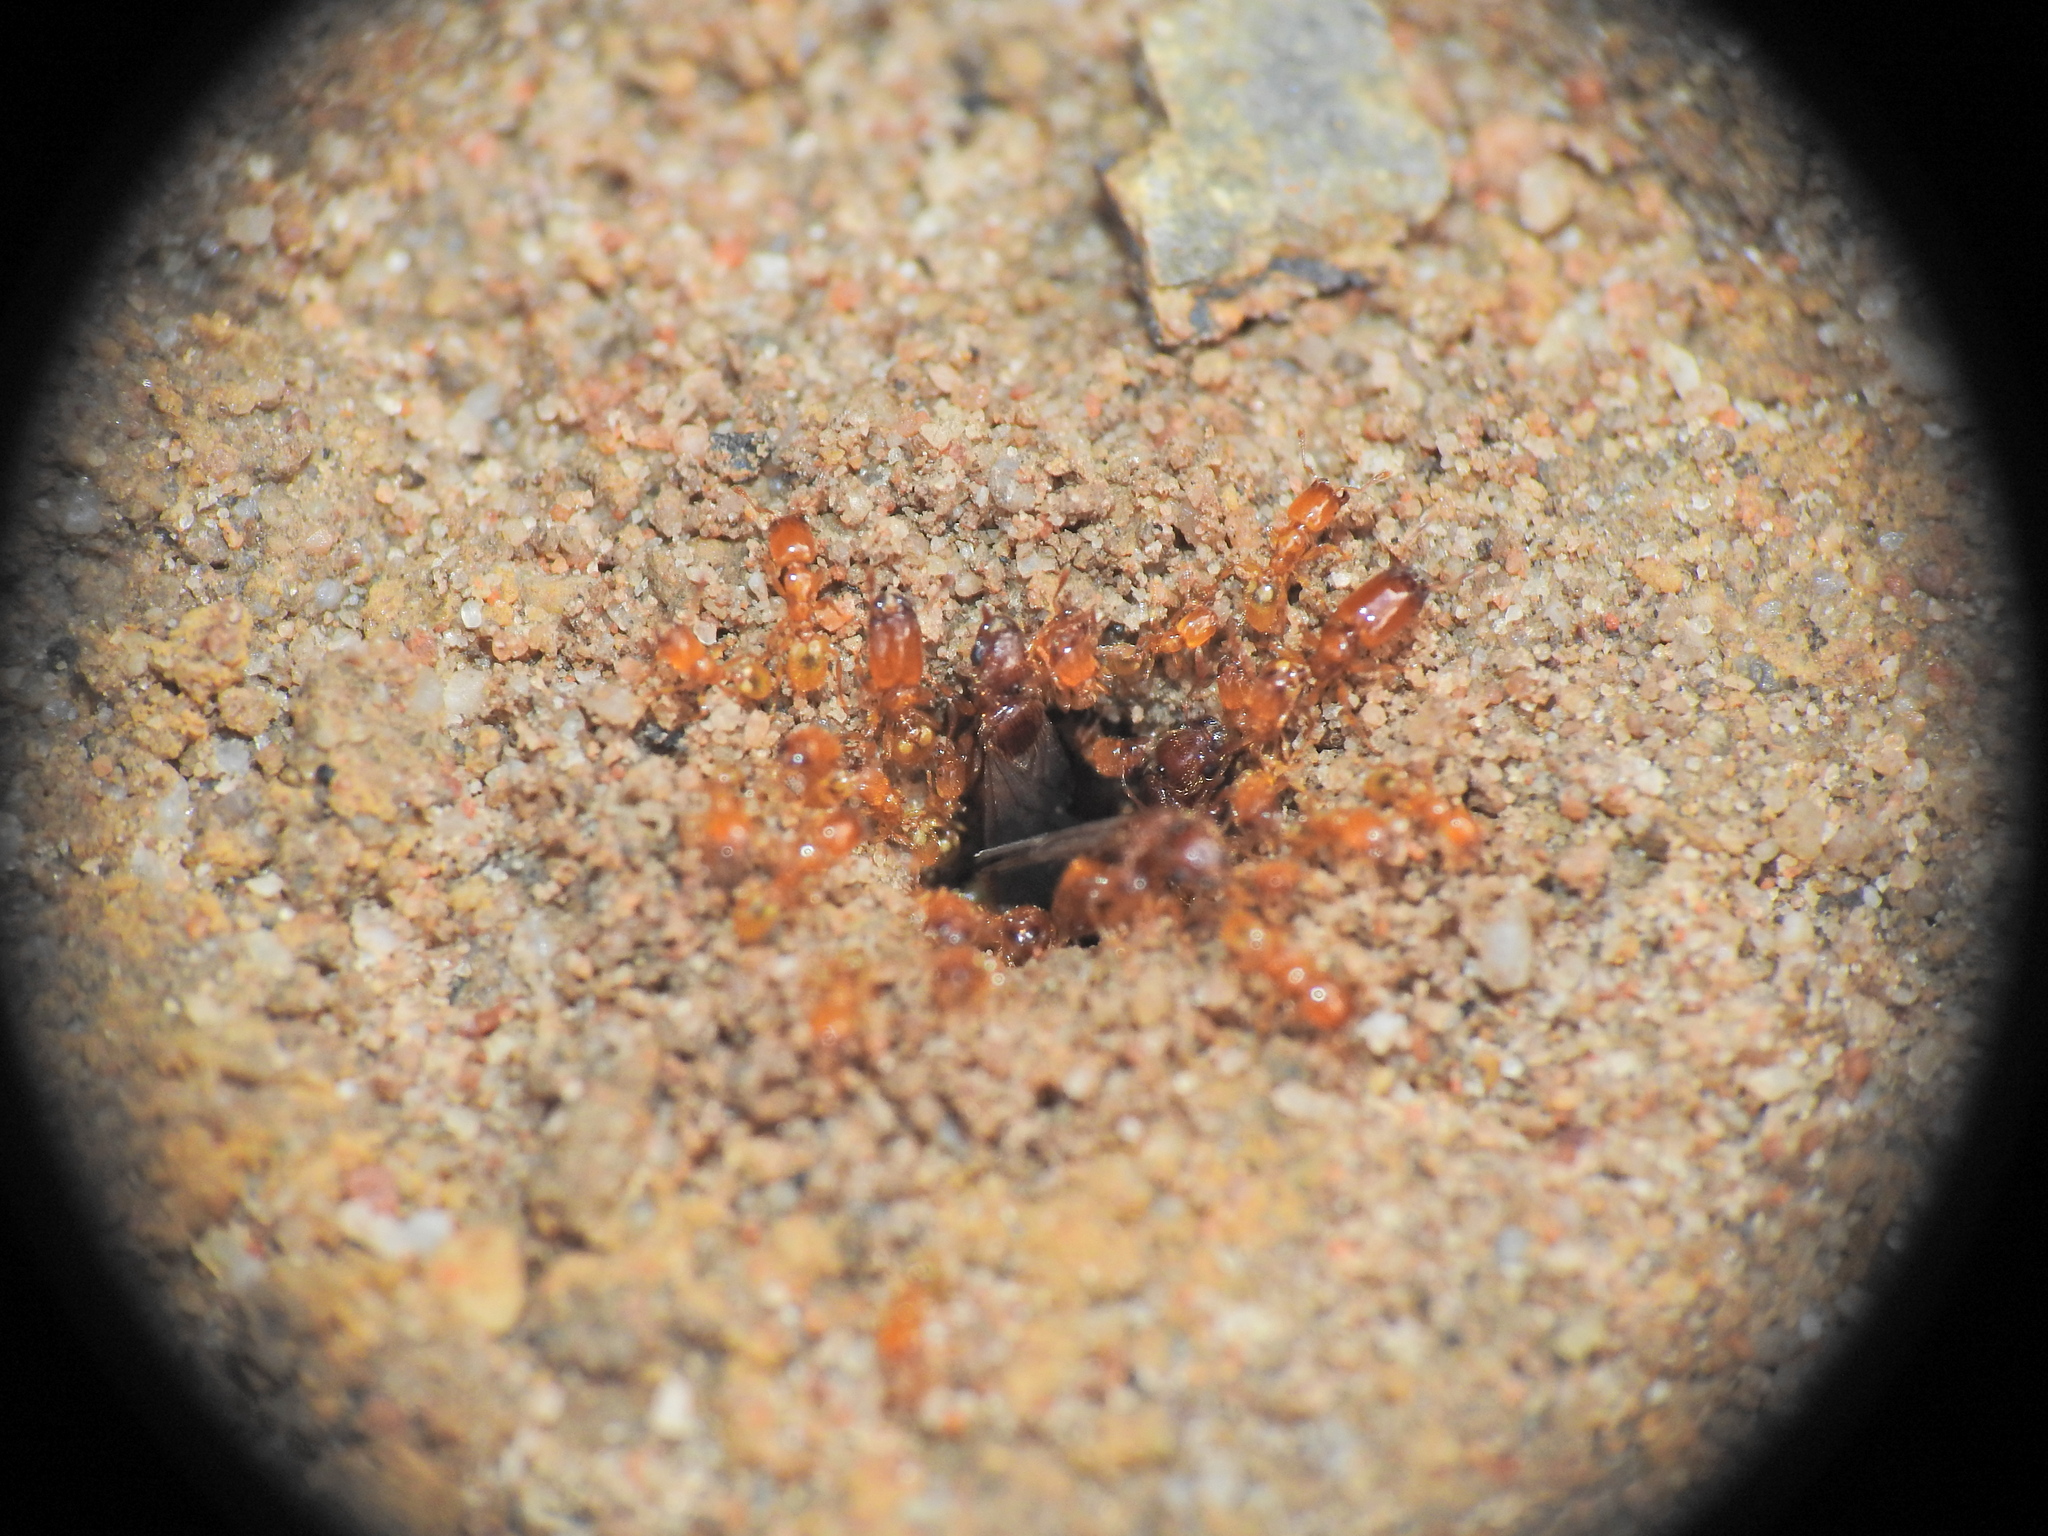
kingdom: Animalia
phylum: Arthropoda
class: Insecta
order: Hymenoptera
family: Formicidae
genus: Pheidole
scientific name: Pheidole
